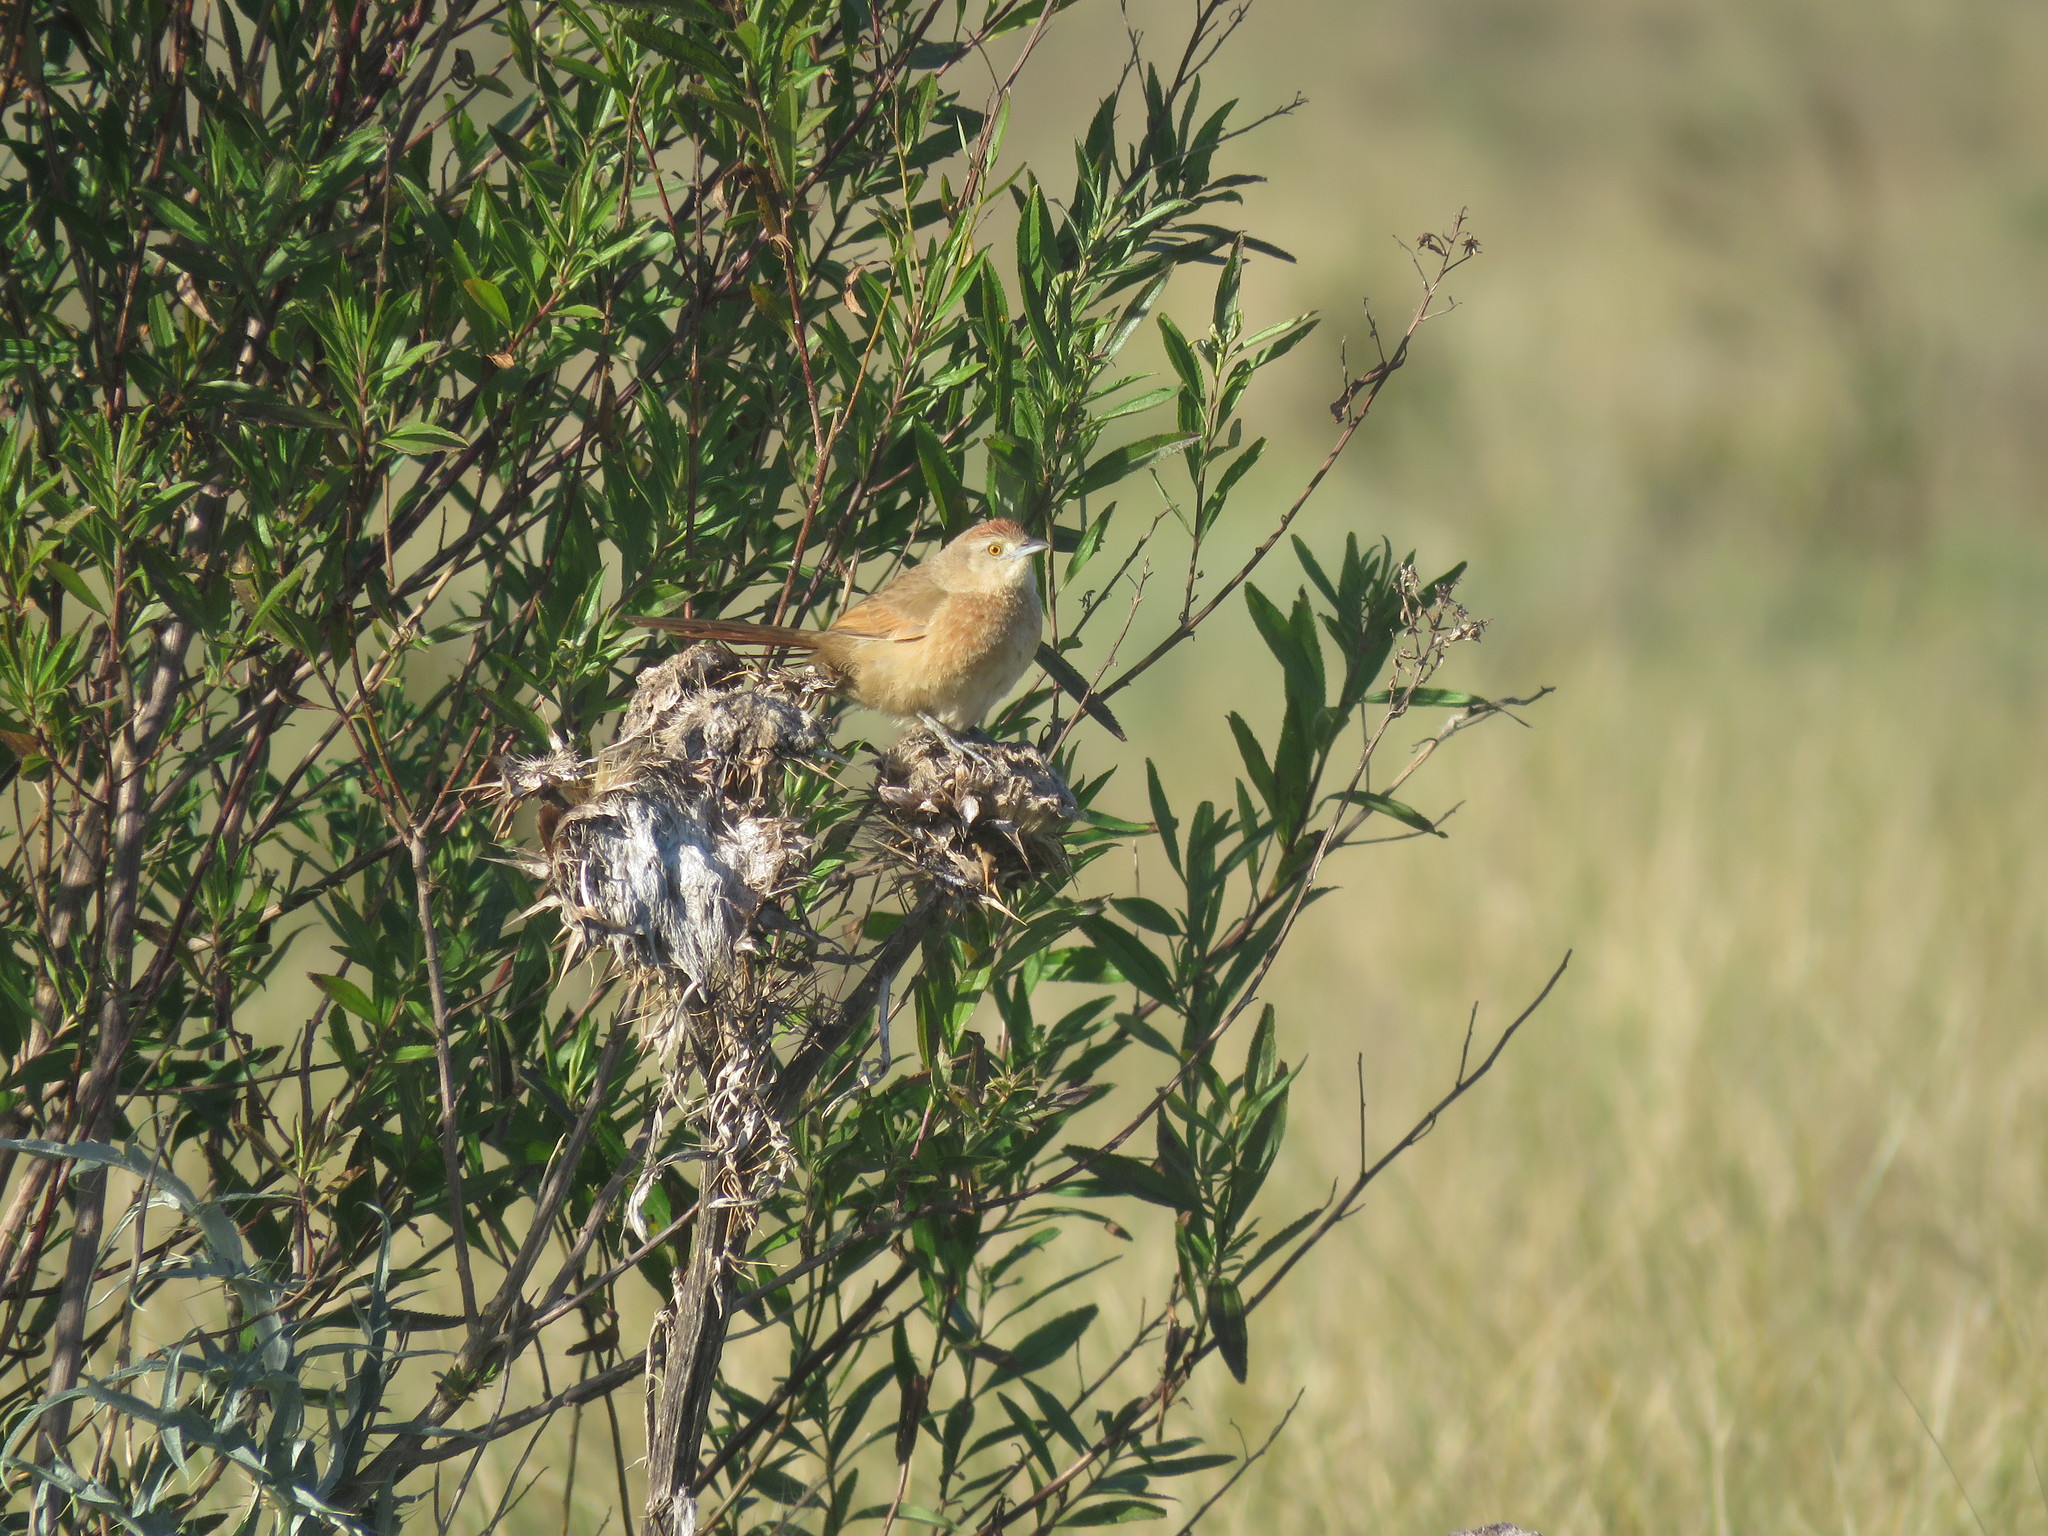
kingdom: Animalia
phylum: Chordata
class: Aves
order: Passeriformes
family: Furnariidae
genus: Phacellodomus
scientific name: Phacellodomus striaticollis
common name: Freckle-breasted thornbird
